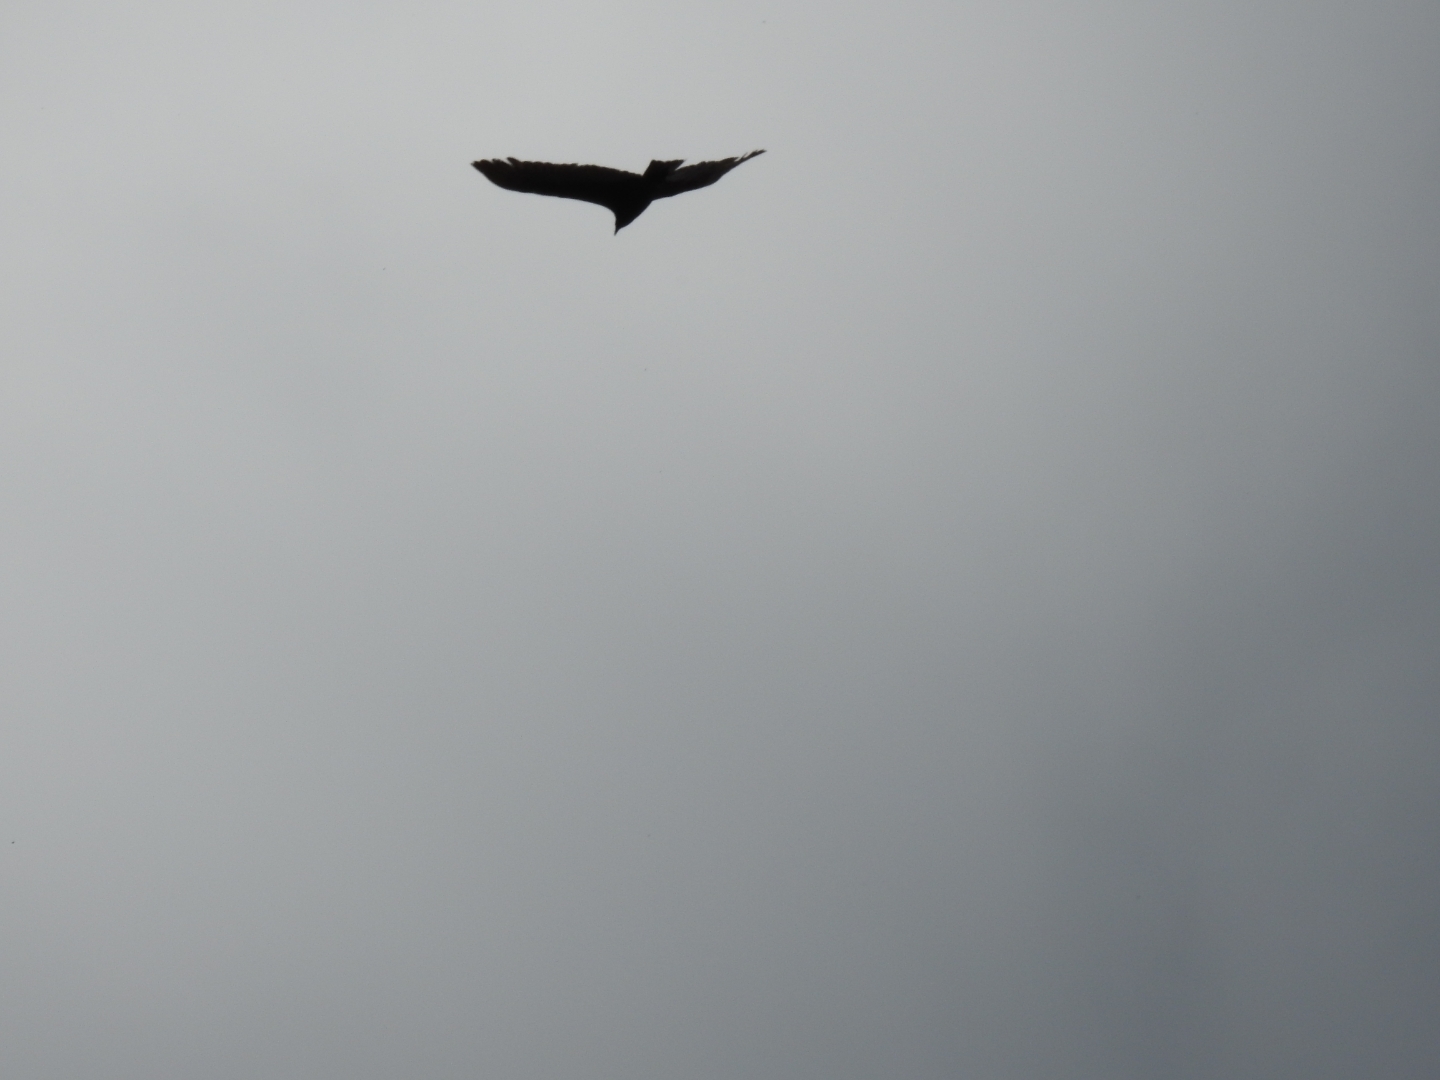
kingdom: Animalia
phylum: Chordata
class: Aves
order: Accipitriformes
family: Cathartidae
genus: Cathartes
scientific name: Cathartes aura
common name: Turkey vulture
